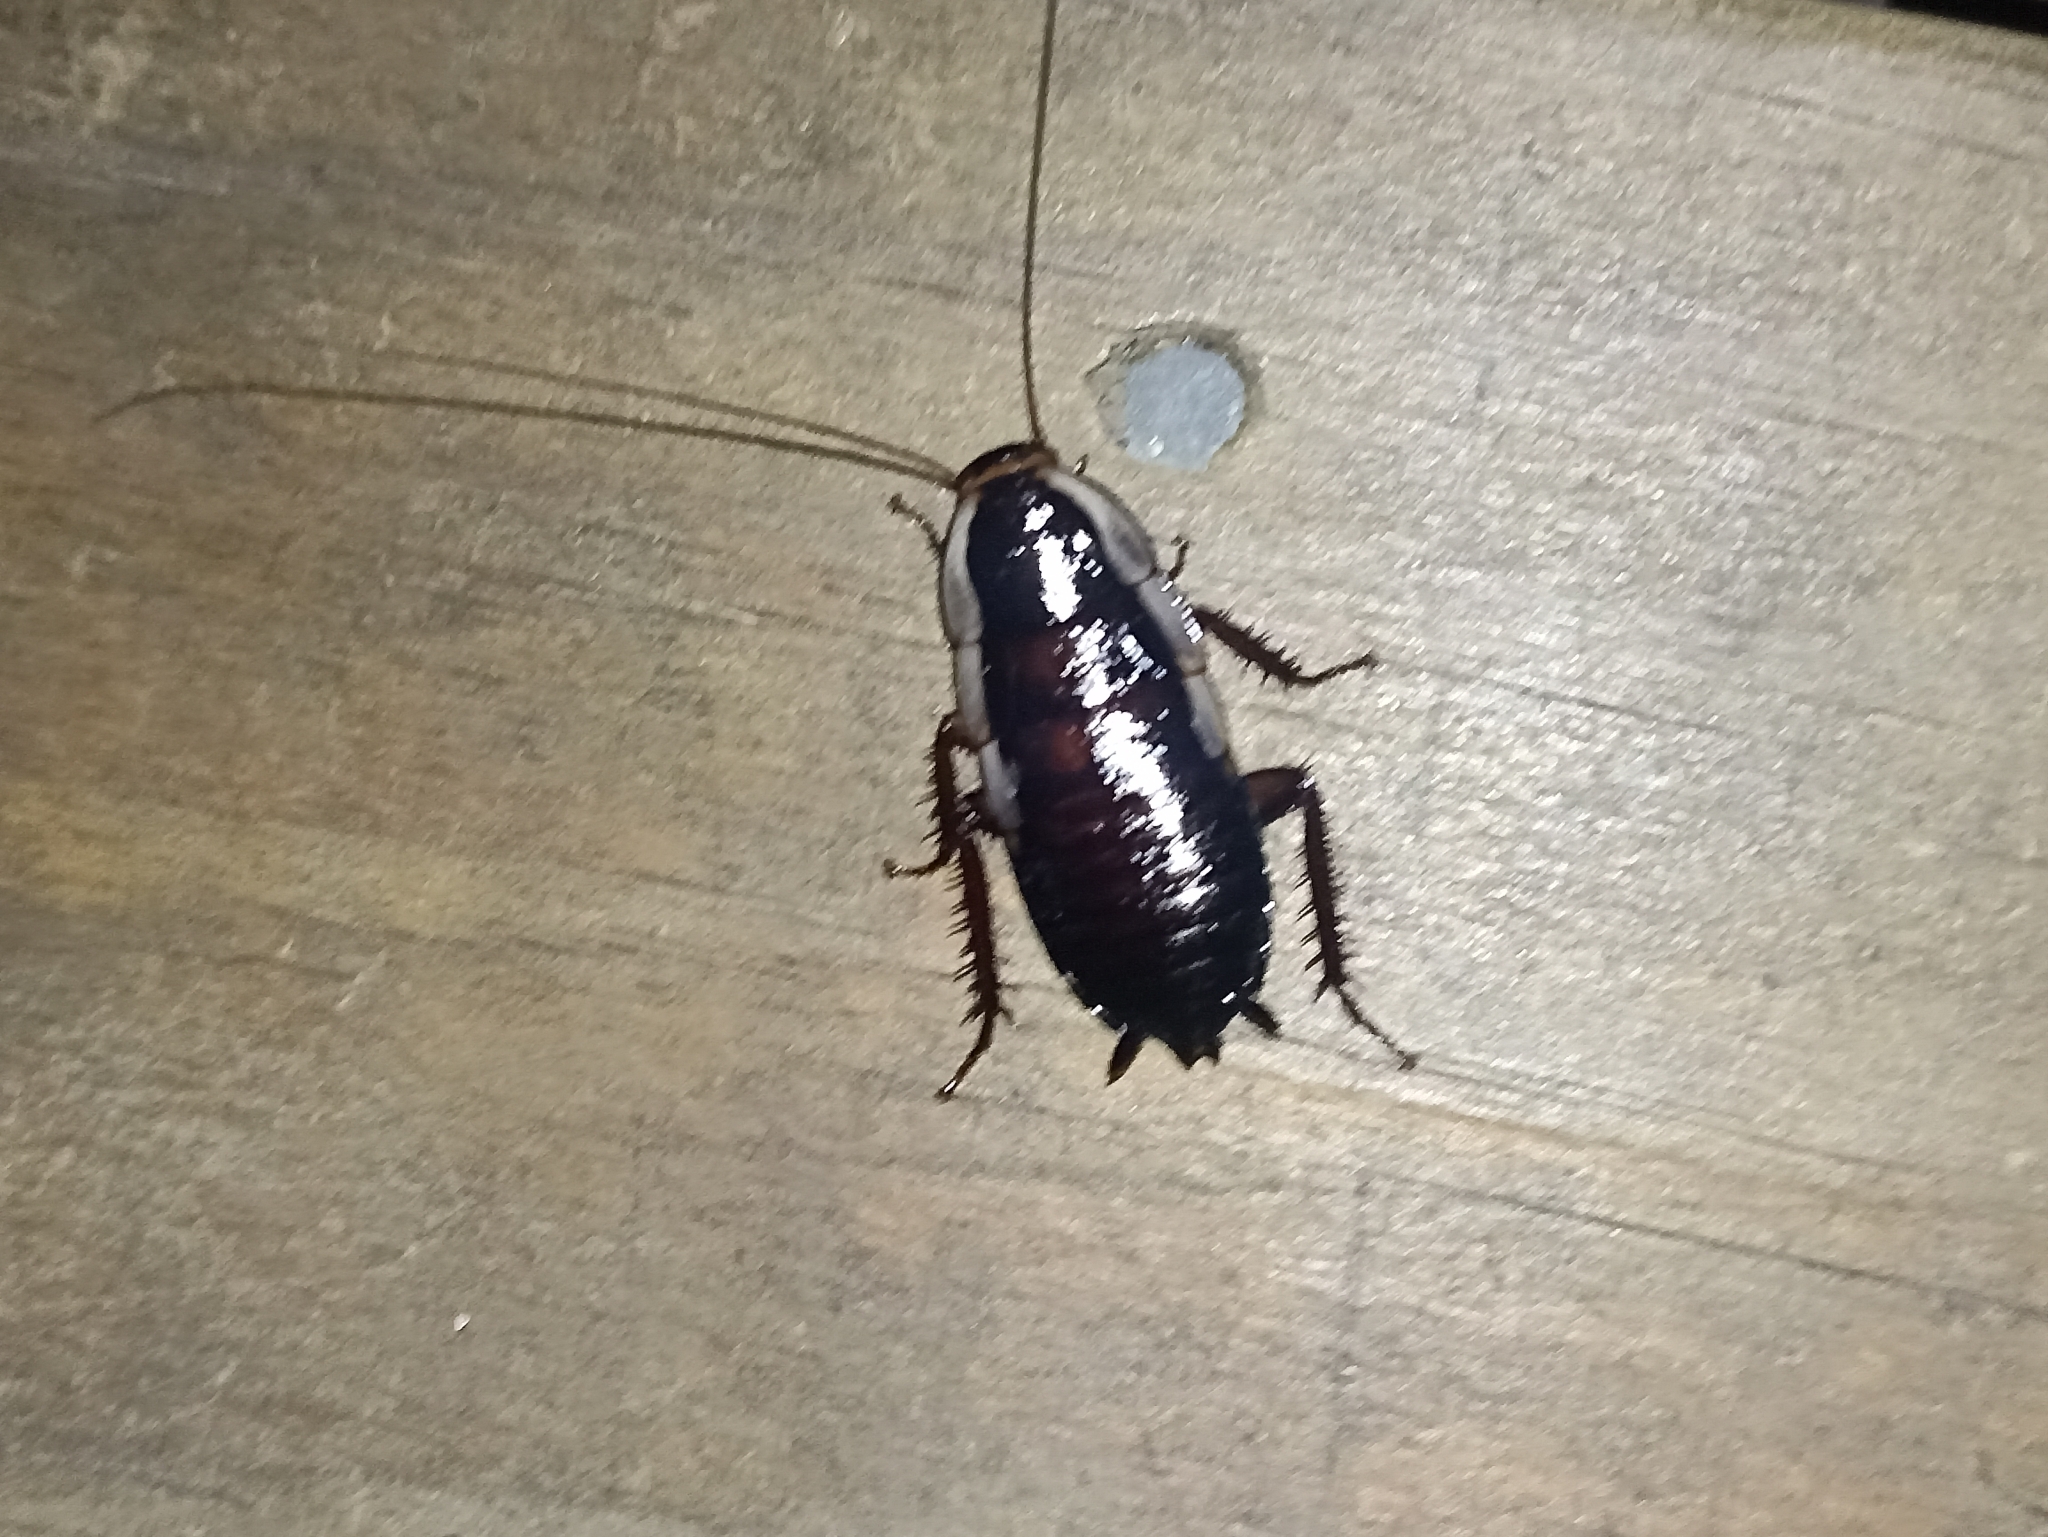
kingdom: Animalia
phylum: Arthropoda
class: Insecta
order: Blattodea
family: Blattidae
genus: Drymaplaneta
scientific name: Drymaplaneta semivitta
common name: Gisborne cockroach
